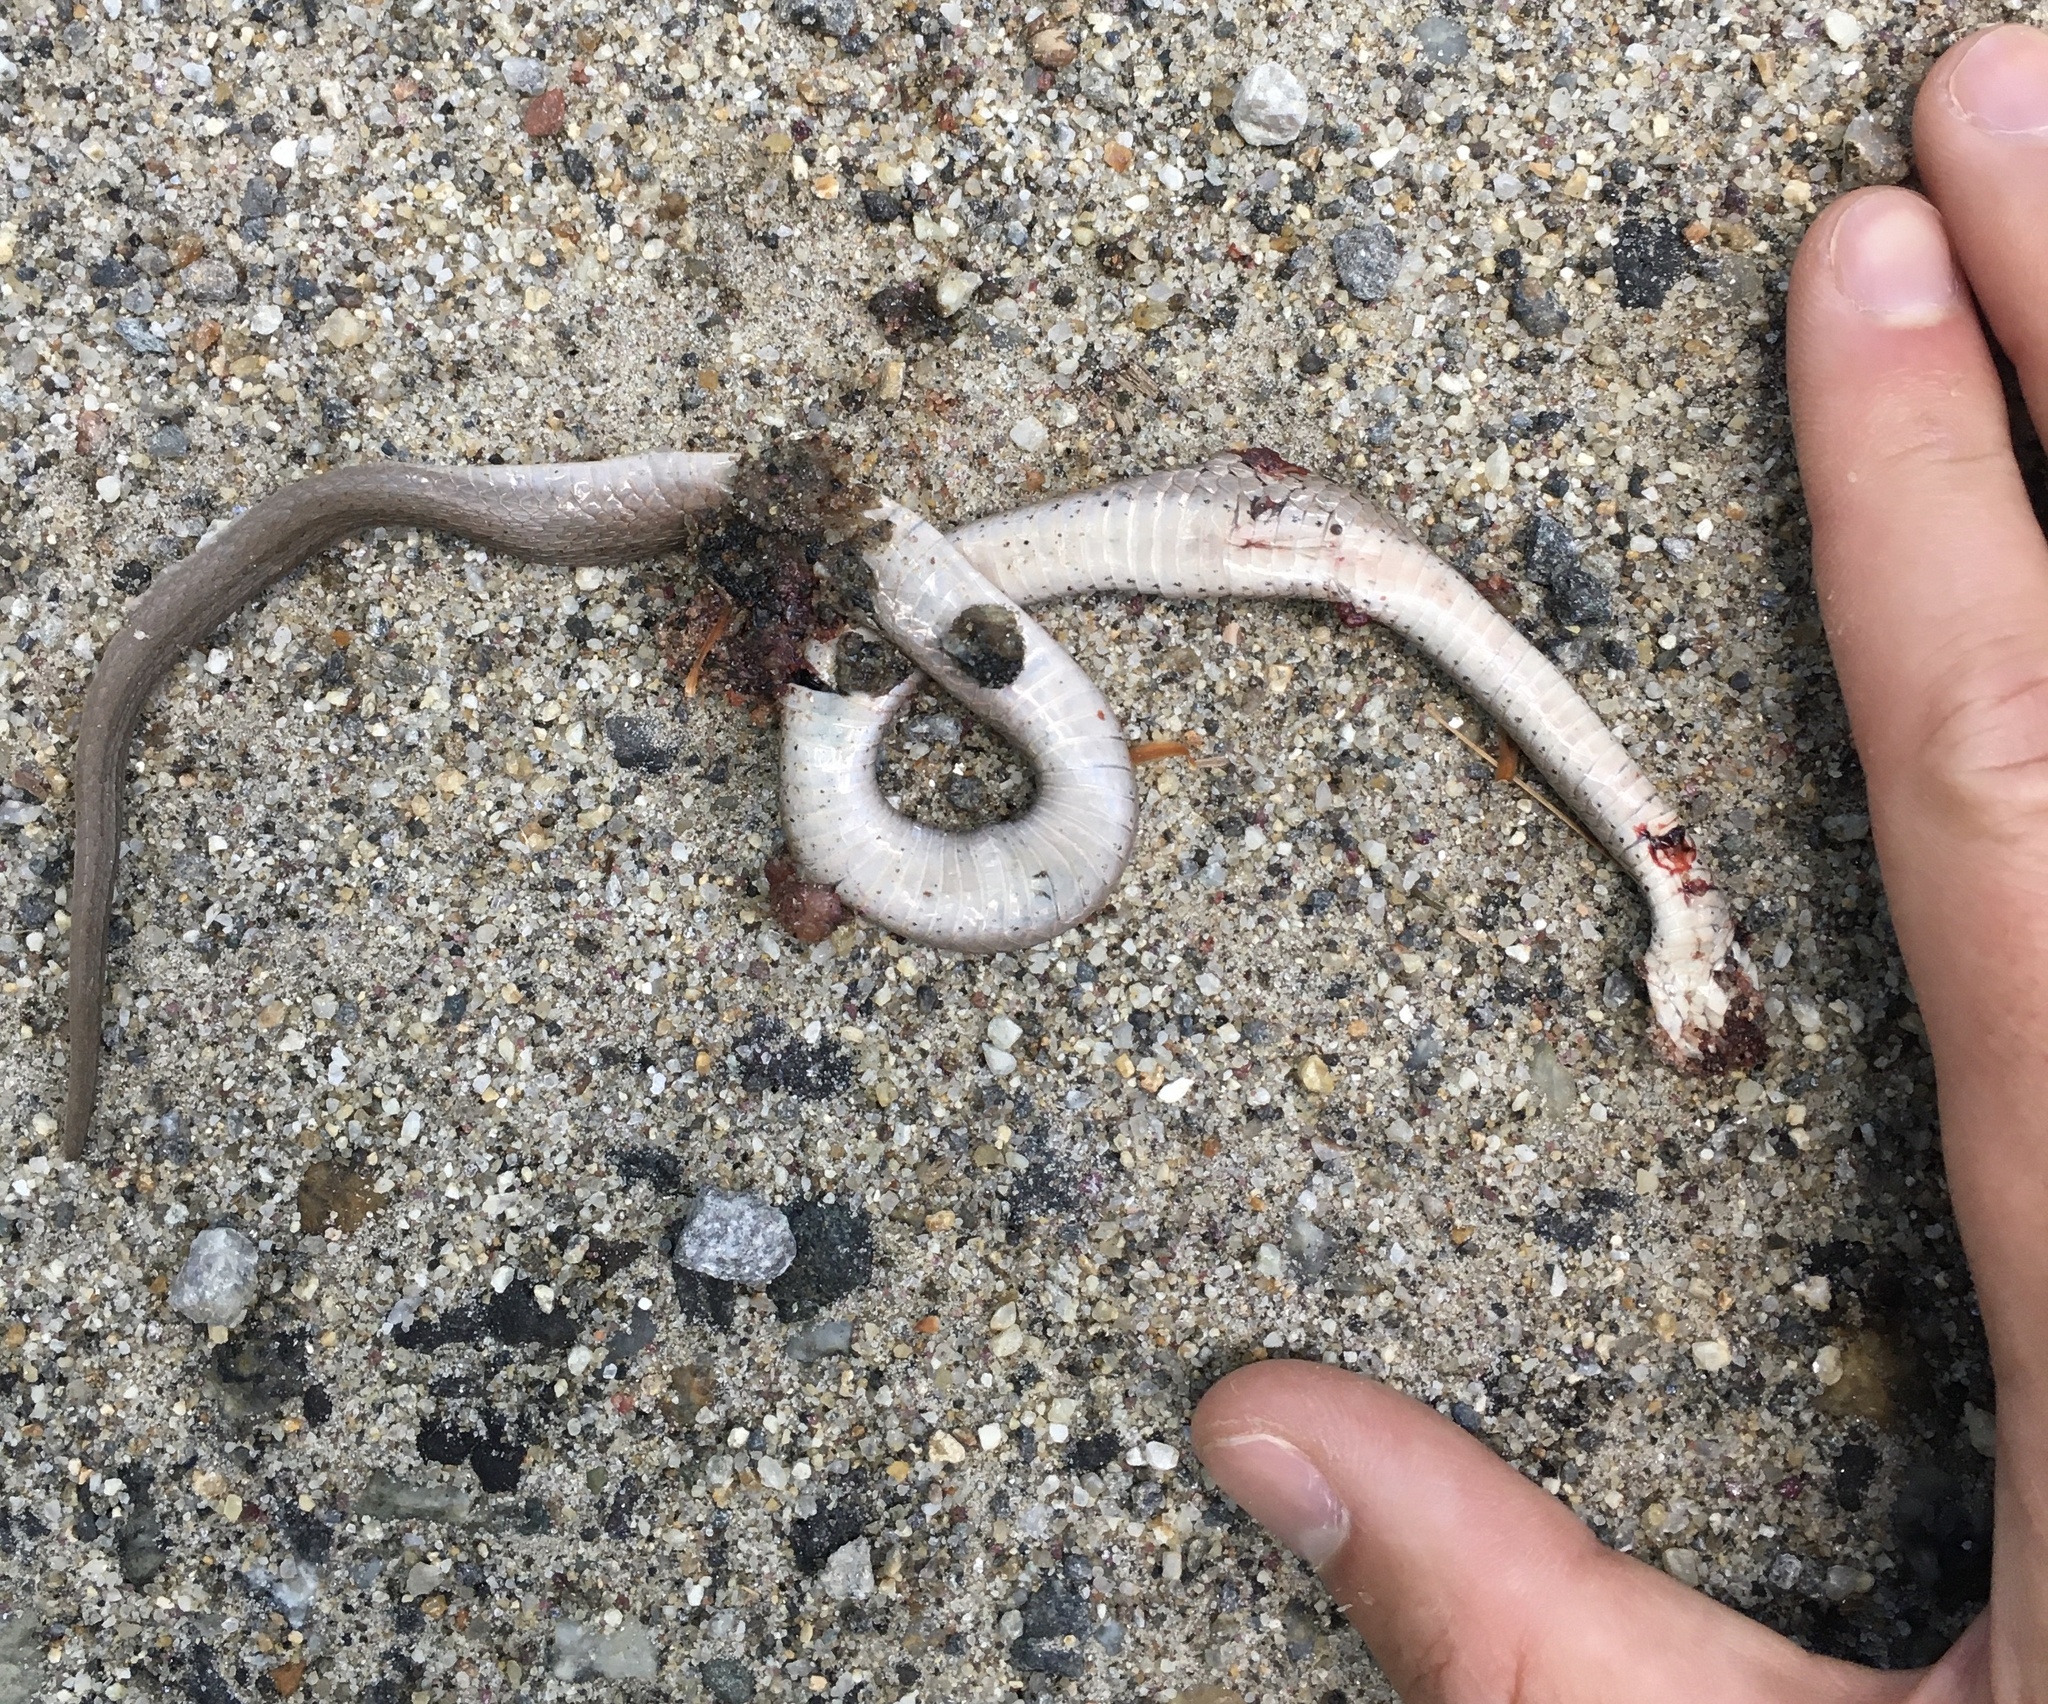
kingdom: Animalia
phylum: Chordata
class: Squamata
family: Colubridae
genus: Storeria
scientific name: Storeria dekayi
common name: (dekay’s) brown snake
